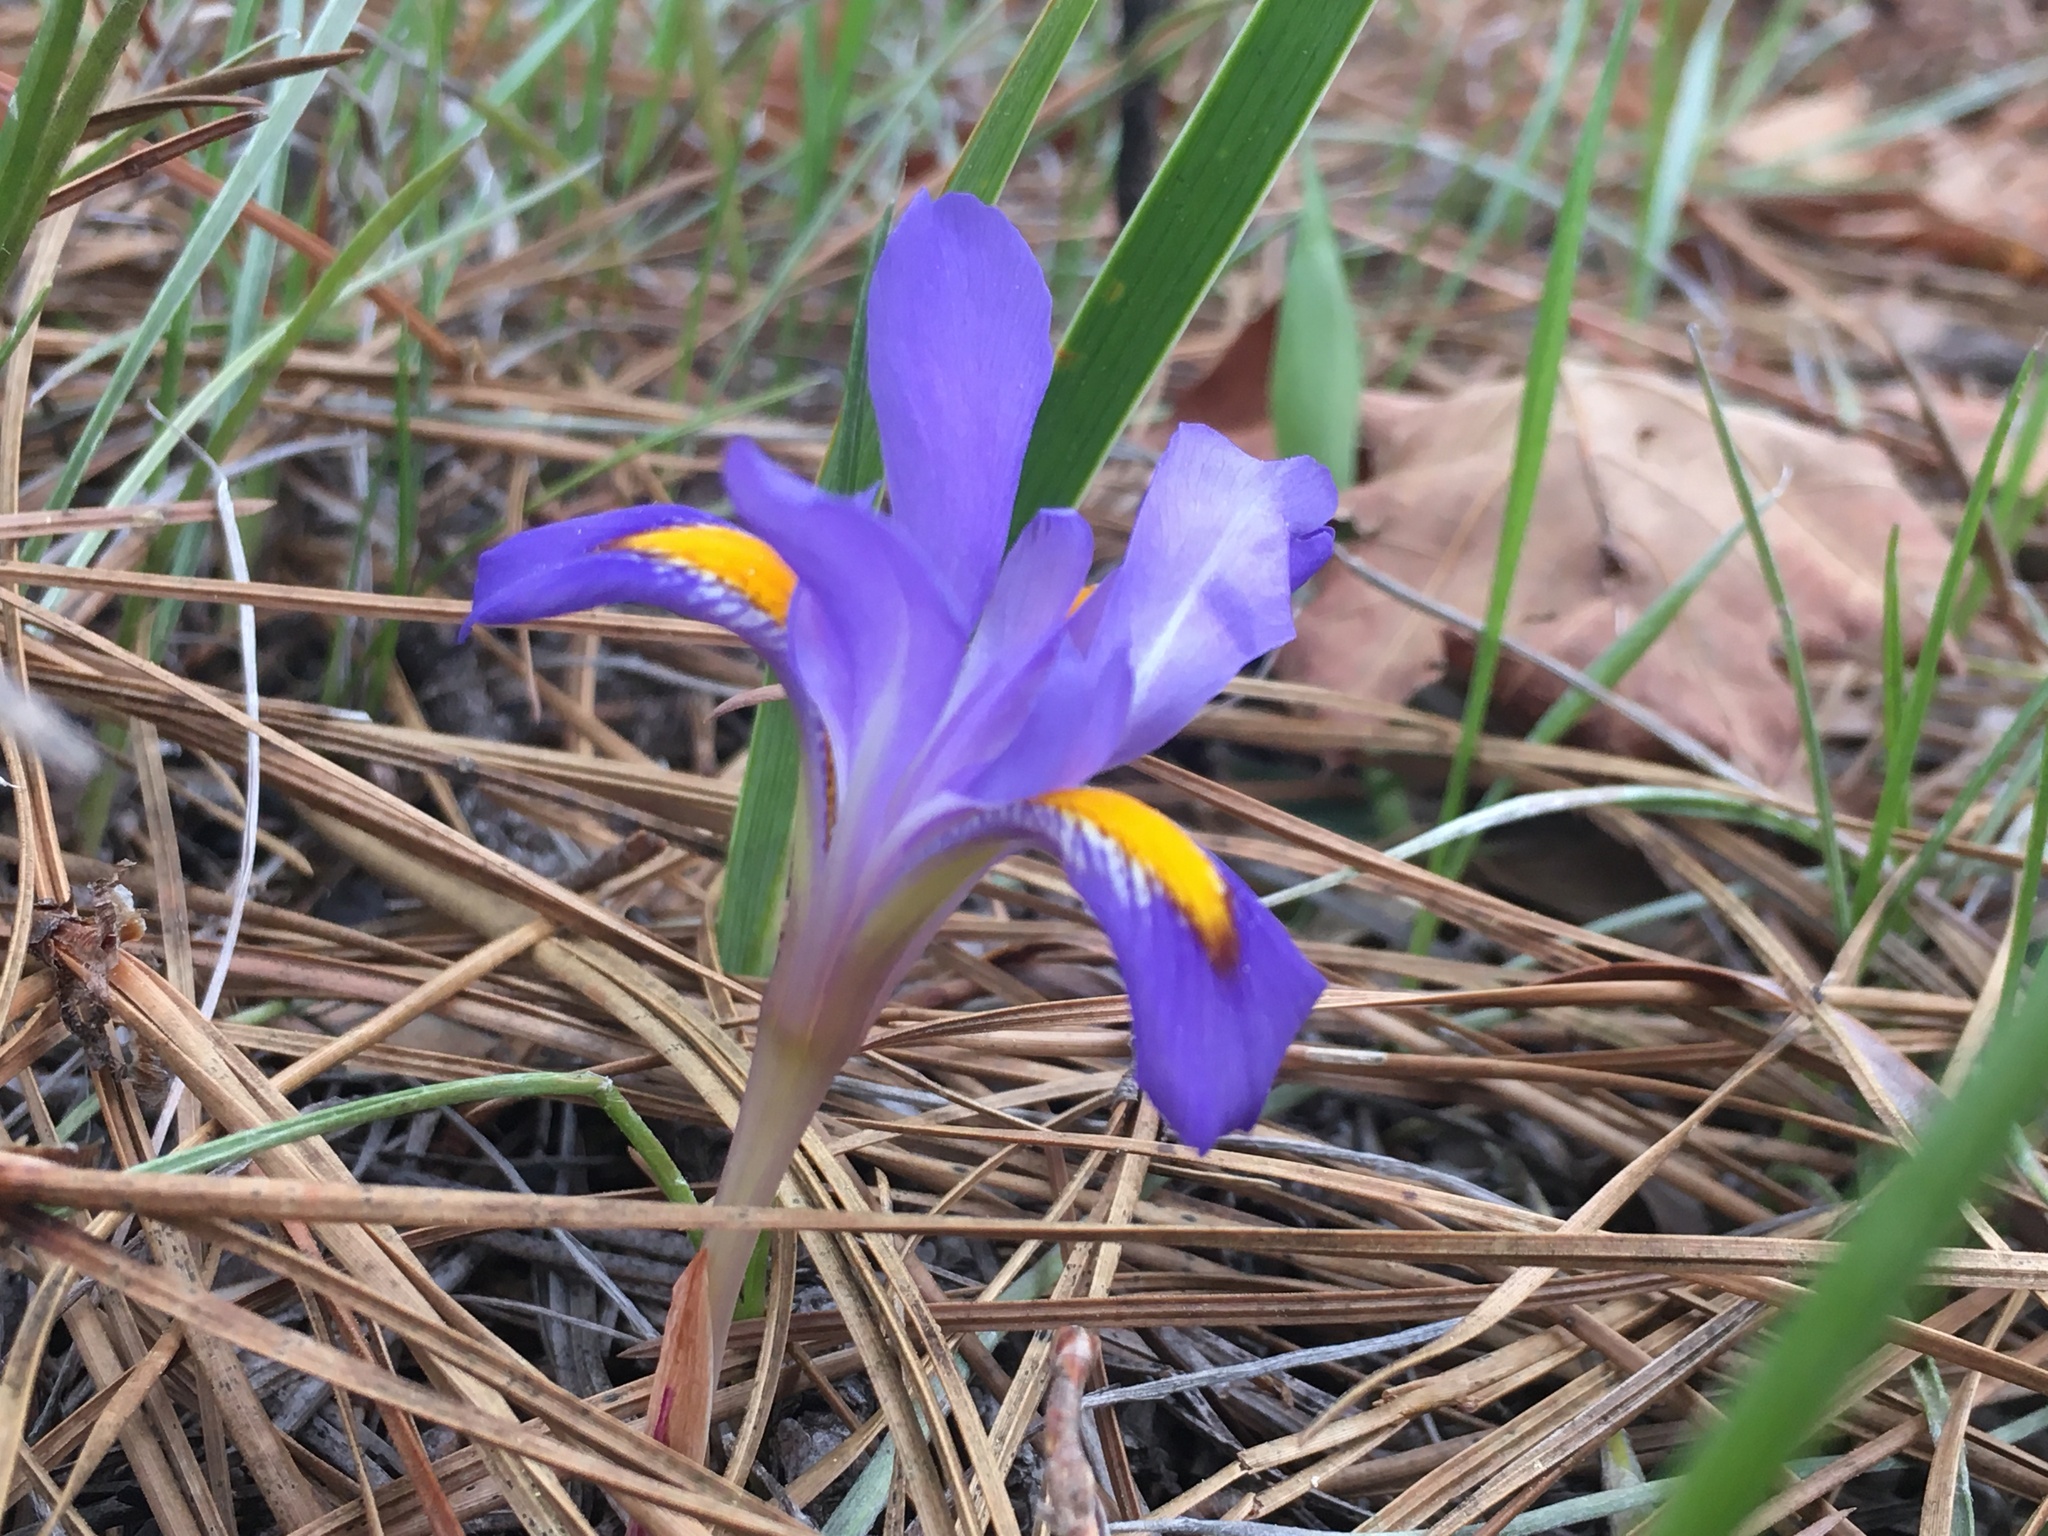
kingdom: Plantae
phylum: Tracheophyta
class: Liliopsida
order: Asparagales
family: Iridaceae
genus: Iris
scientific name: Iris verna
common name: Dwarf iris
